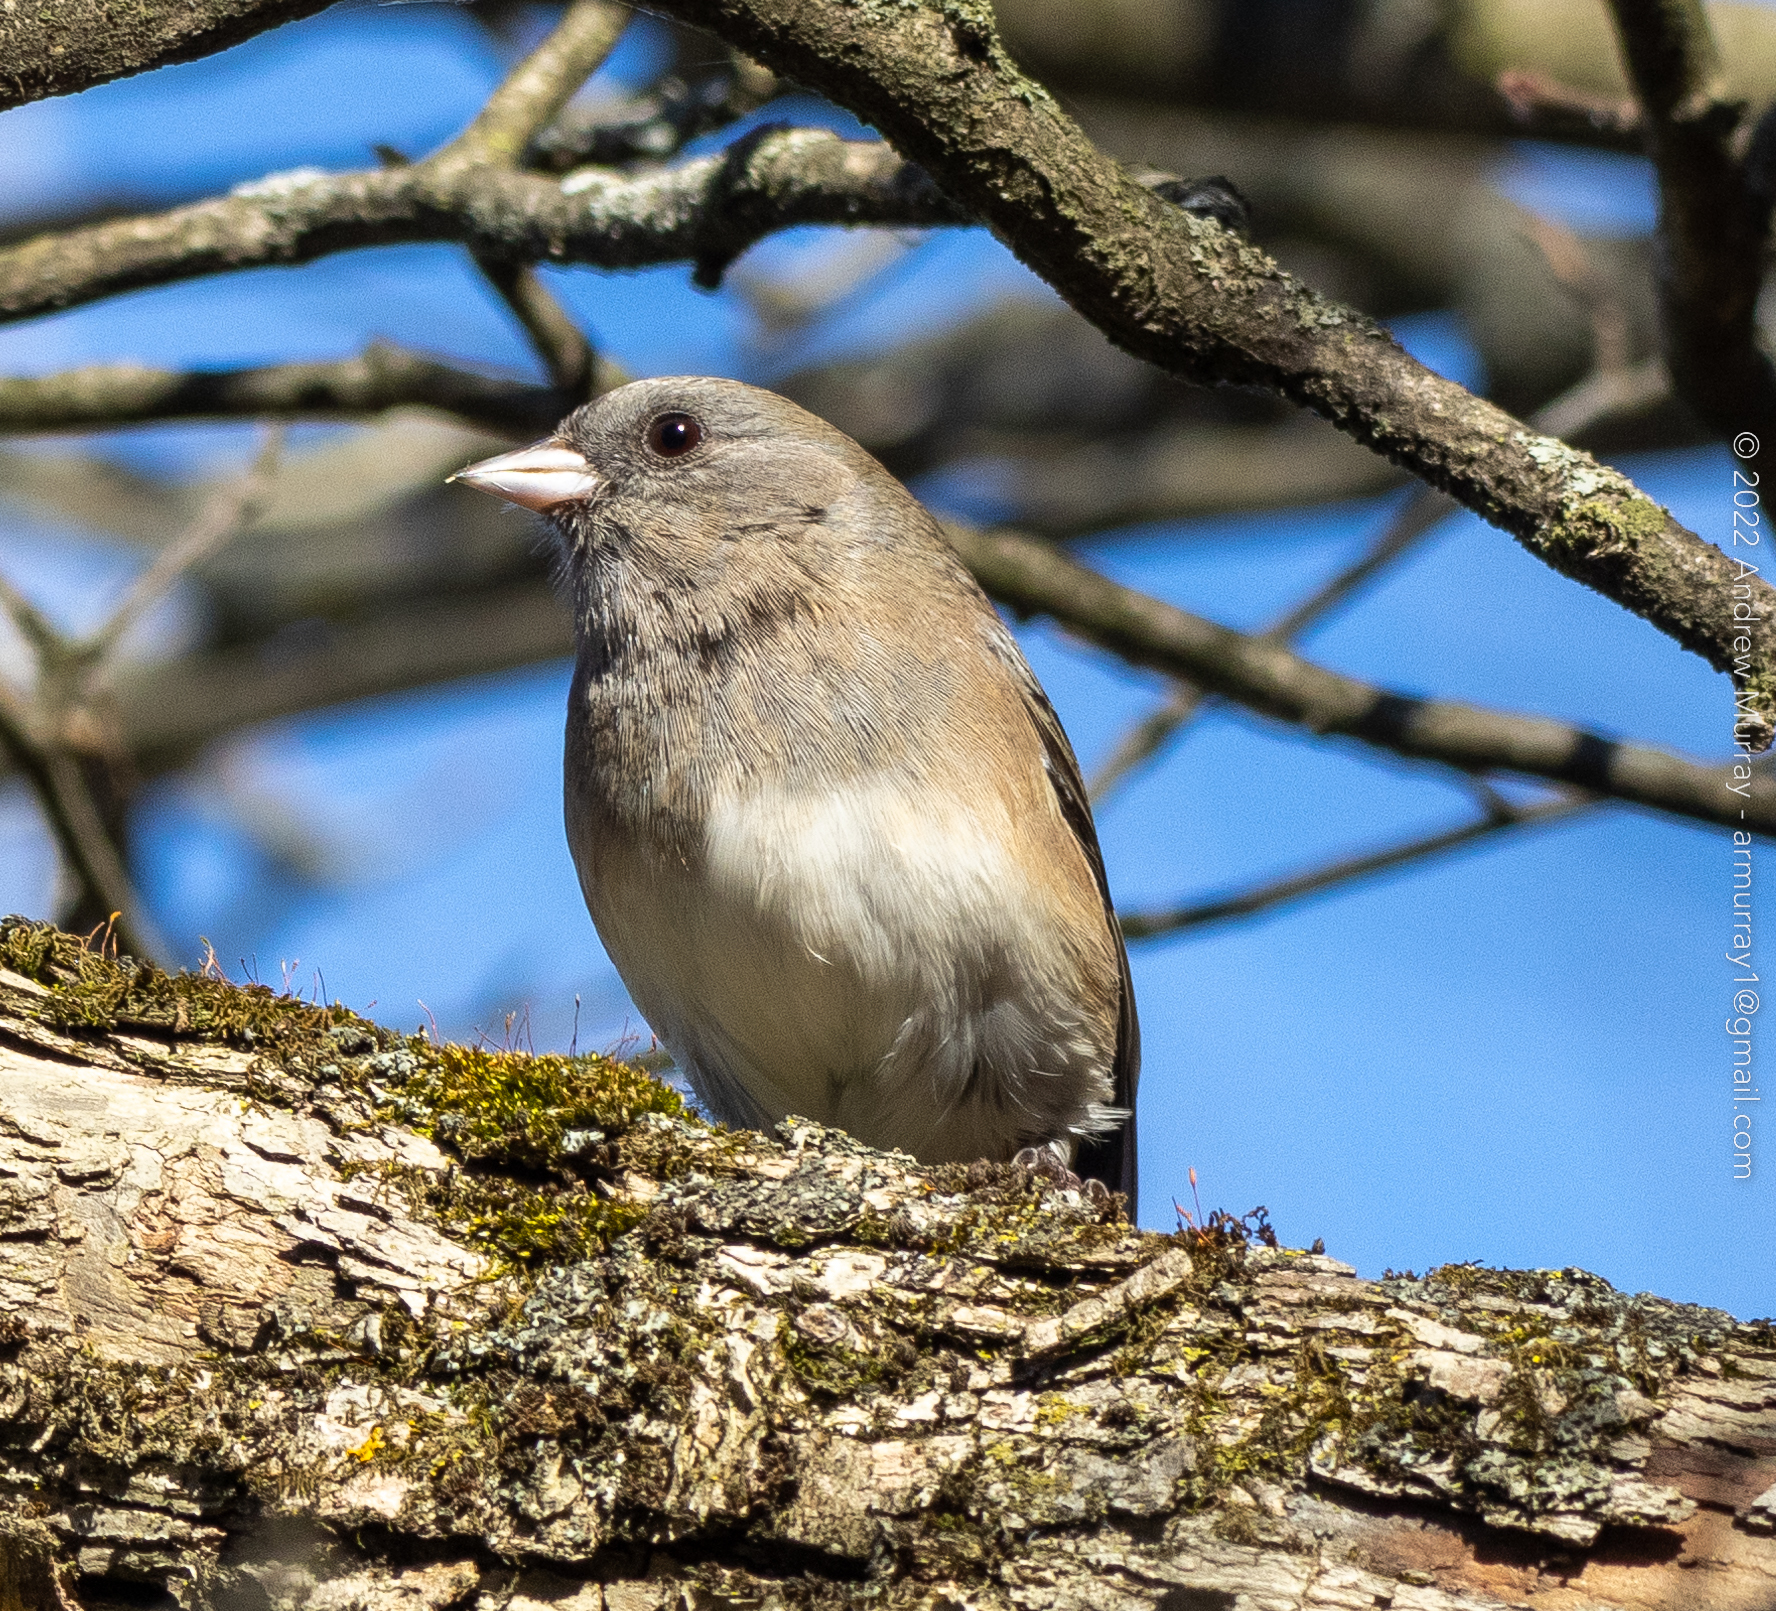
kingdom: Animalia
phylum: Chordata
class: Aves
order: Passeriformes
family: Passerellidae
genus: Junco
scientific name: Junco hyemalis
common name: Dark-eyed junco
